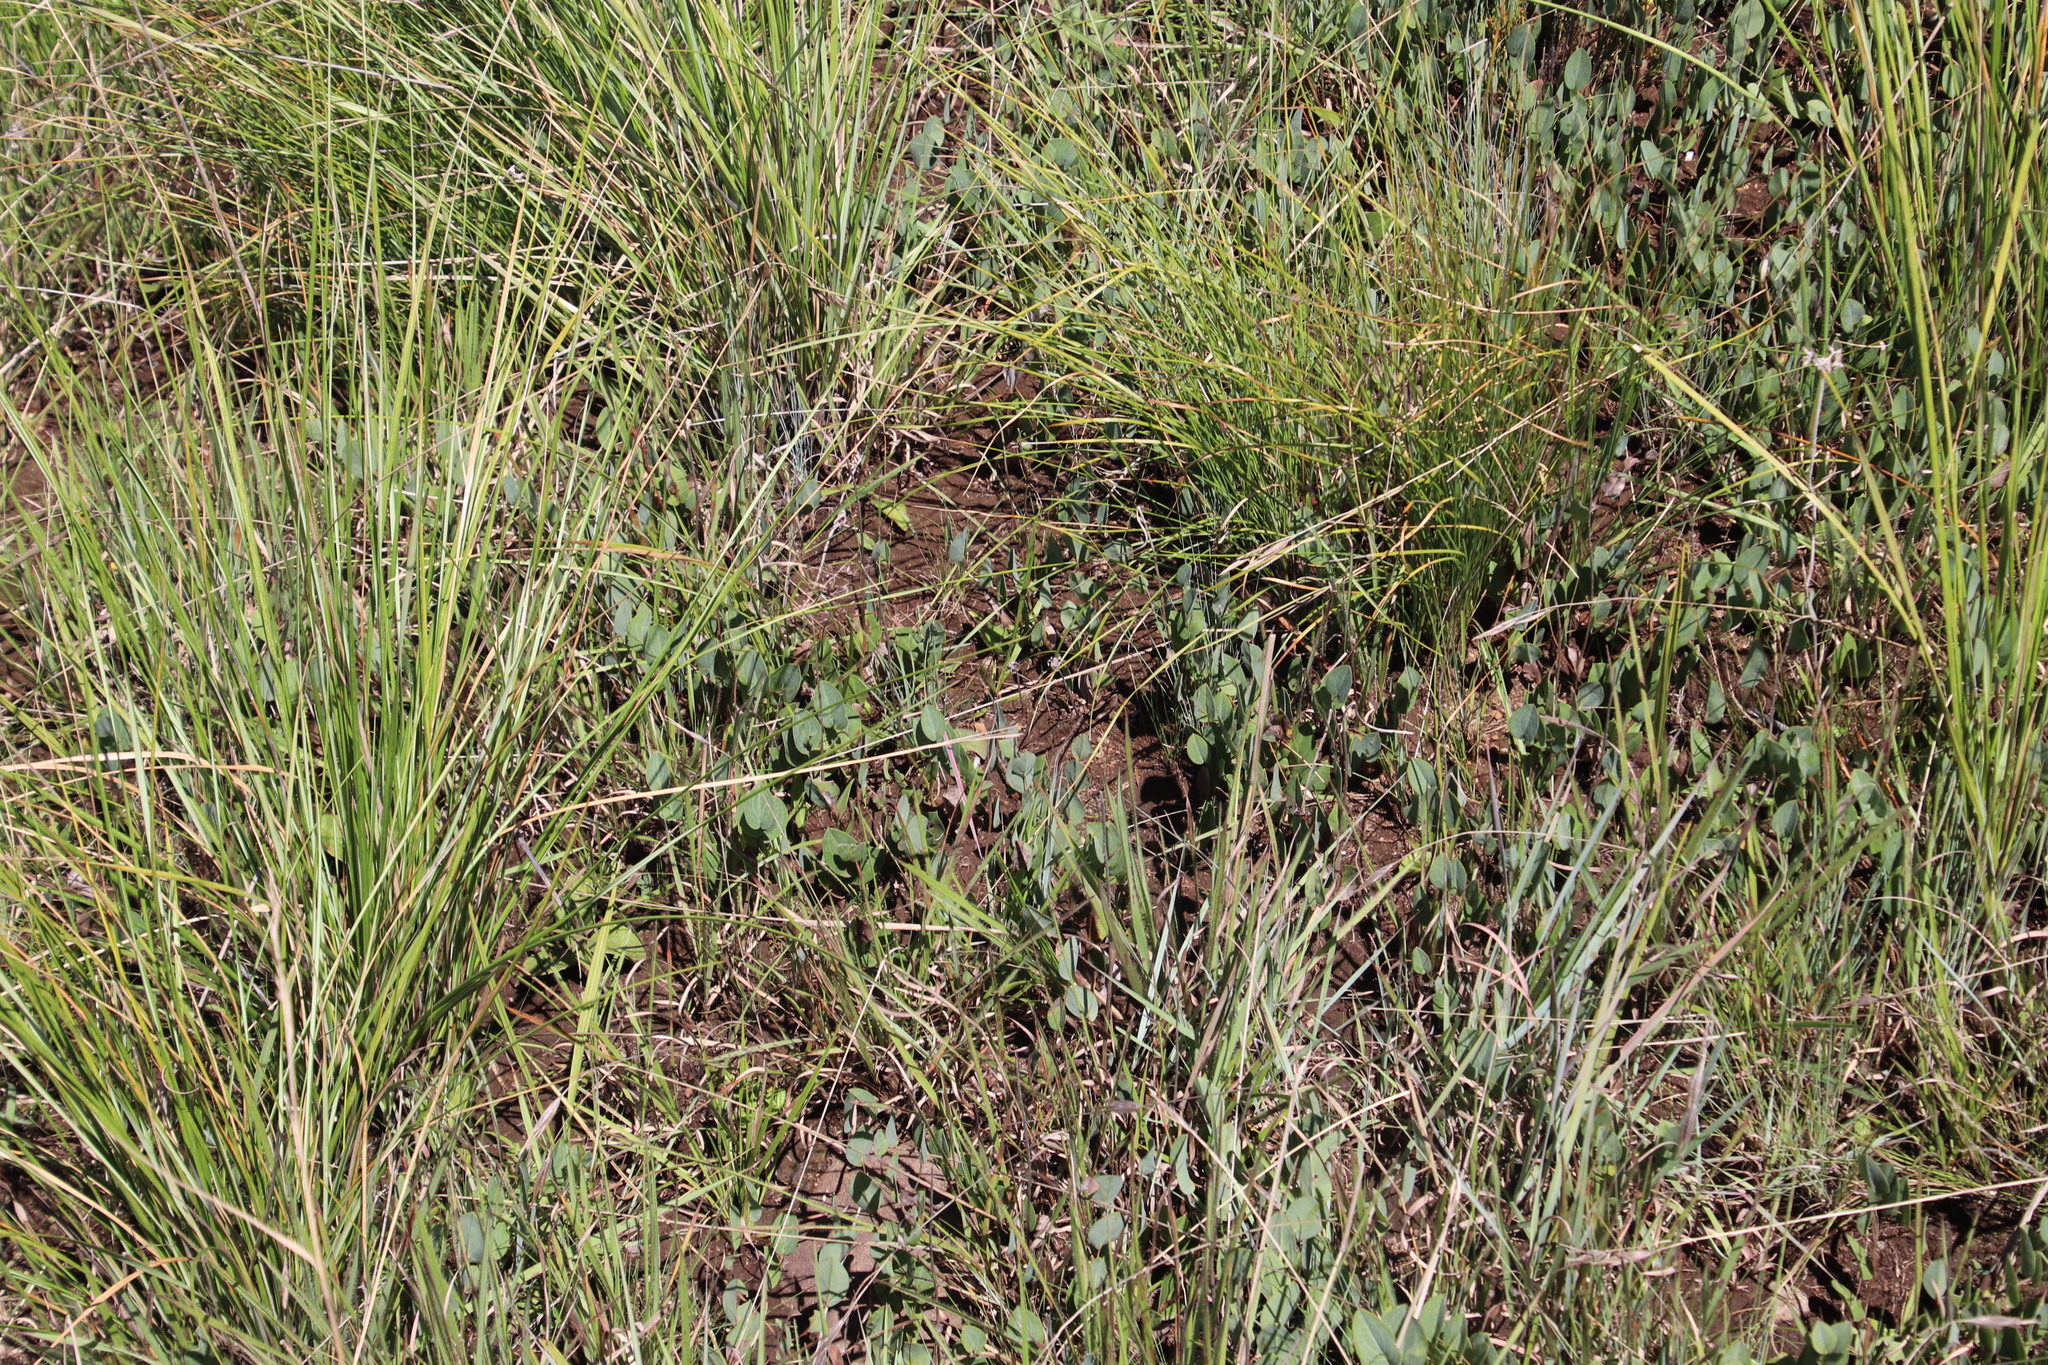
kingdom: Plantae
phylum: Tracheophyta
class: Magnoliopsida
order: Asterales
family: Asteraceae
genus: Afroaster
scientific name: Afroaster perfoliatus
